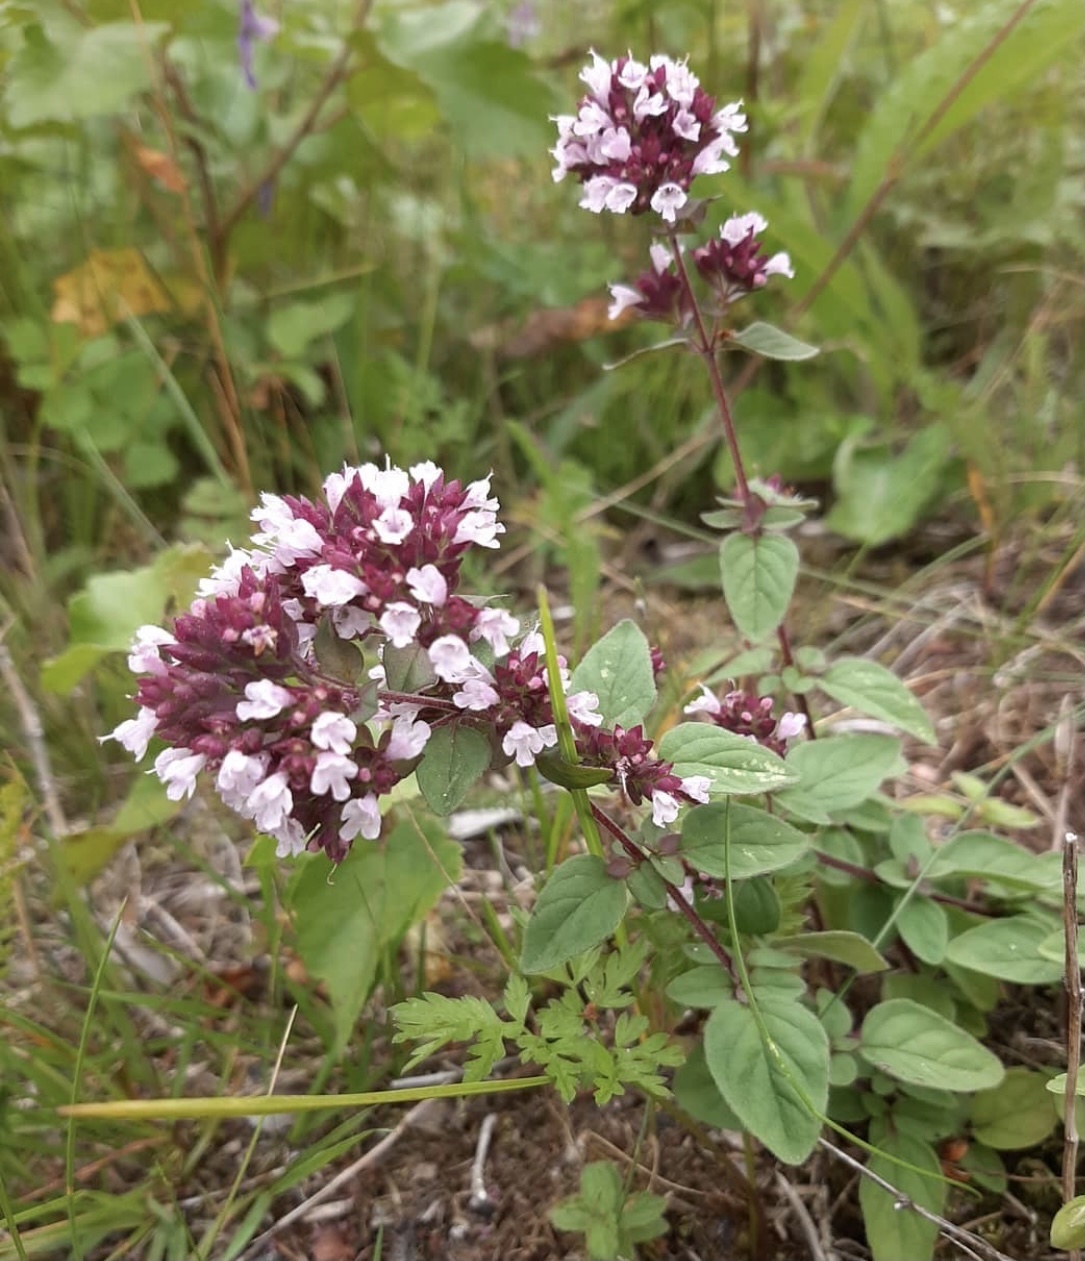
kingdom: Plantae
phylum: Tracheophyta
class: Magnoliopsida
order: Lamiales
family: Lamiaceae
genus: Origanum
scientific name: Origanum vulgare
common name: Wild marjoram
